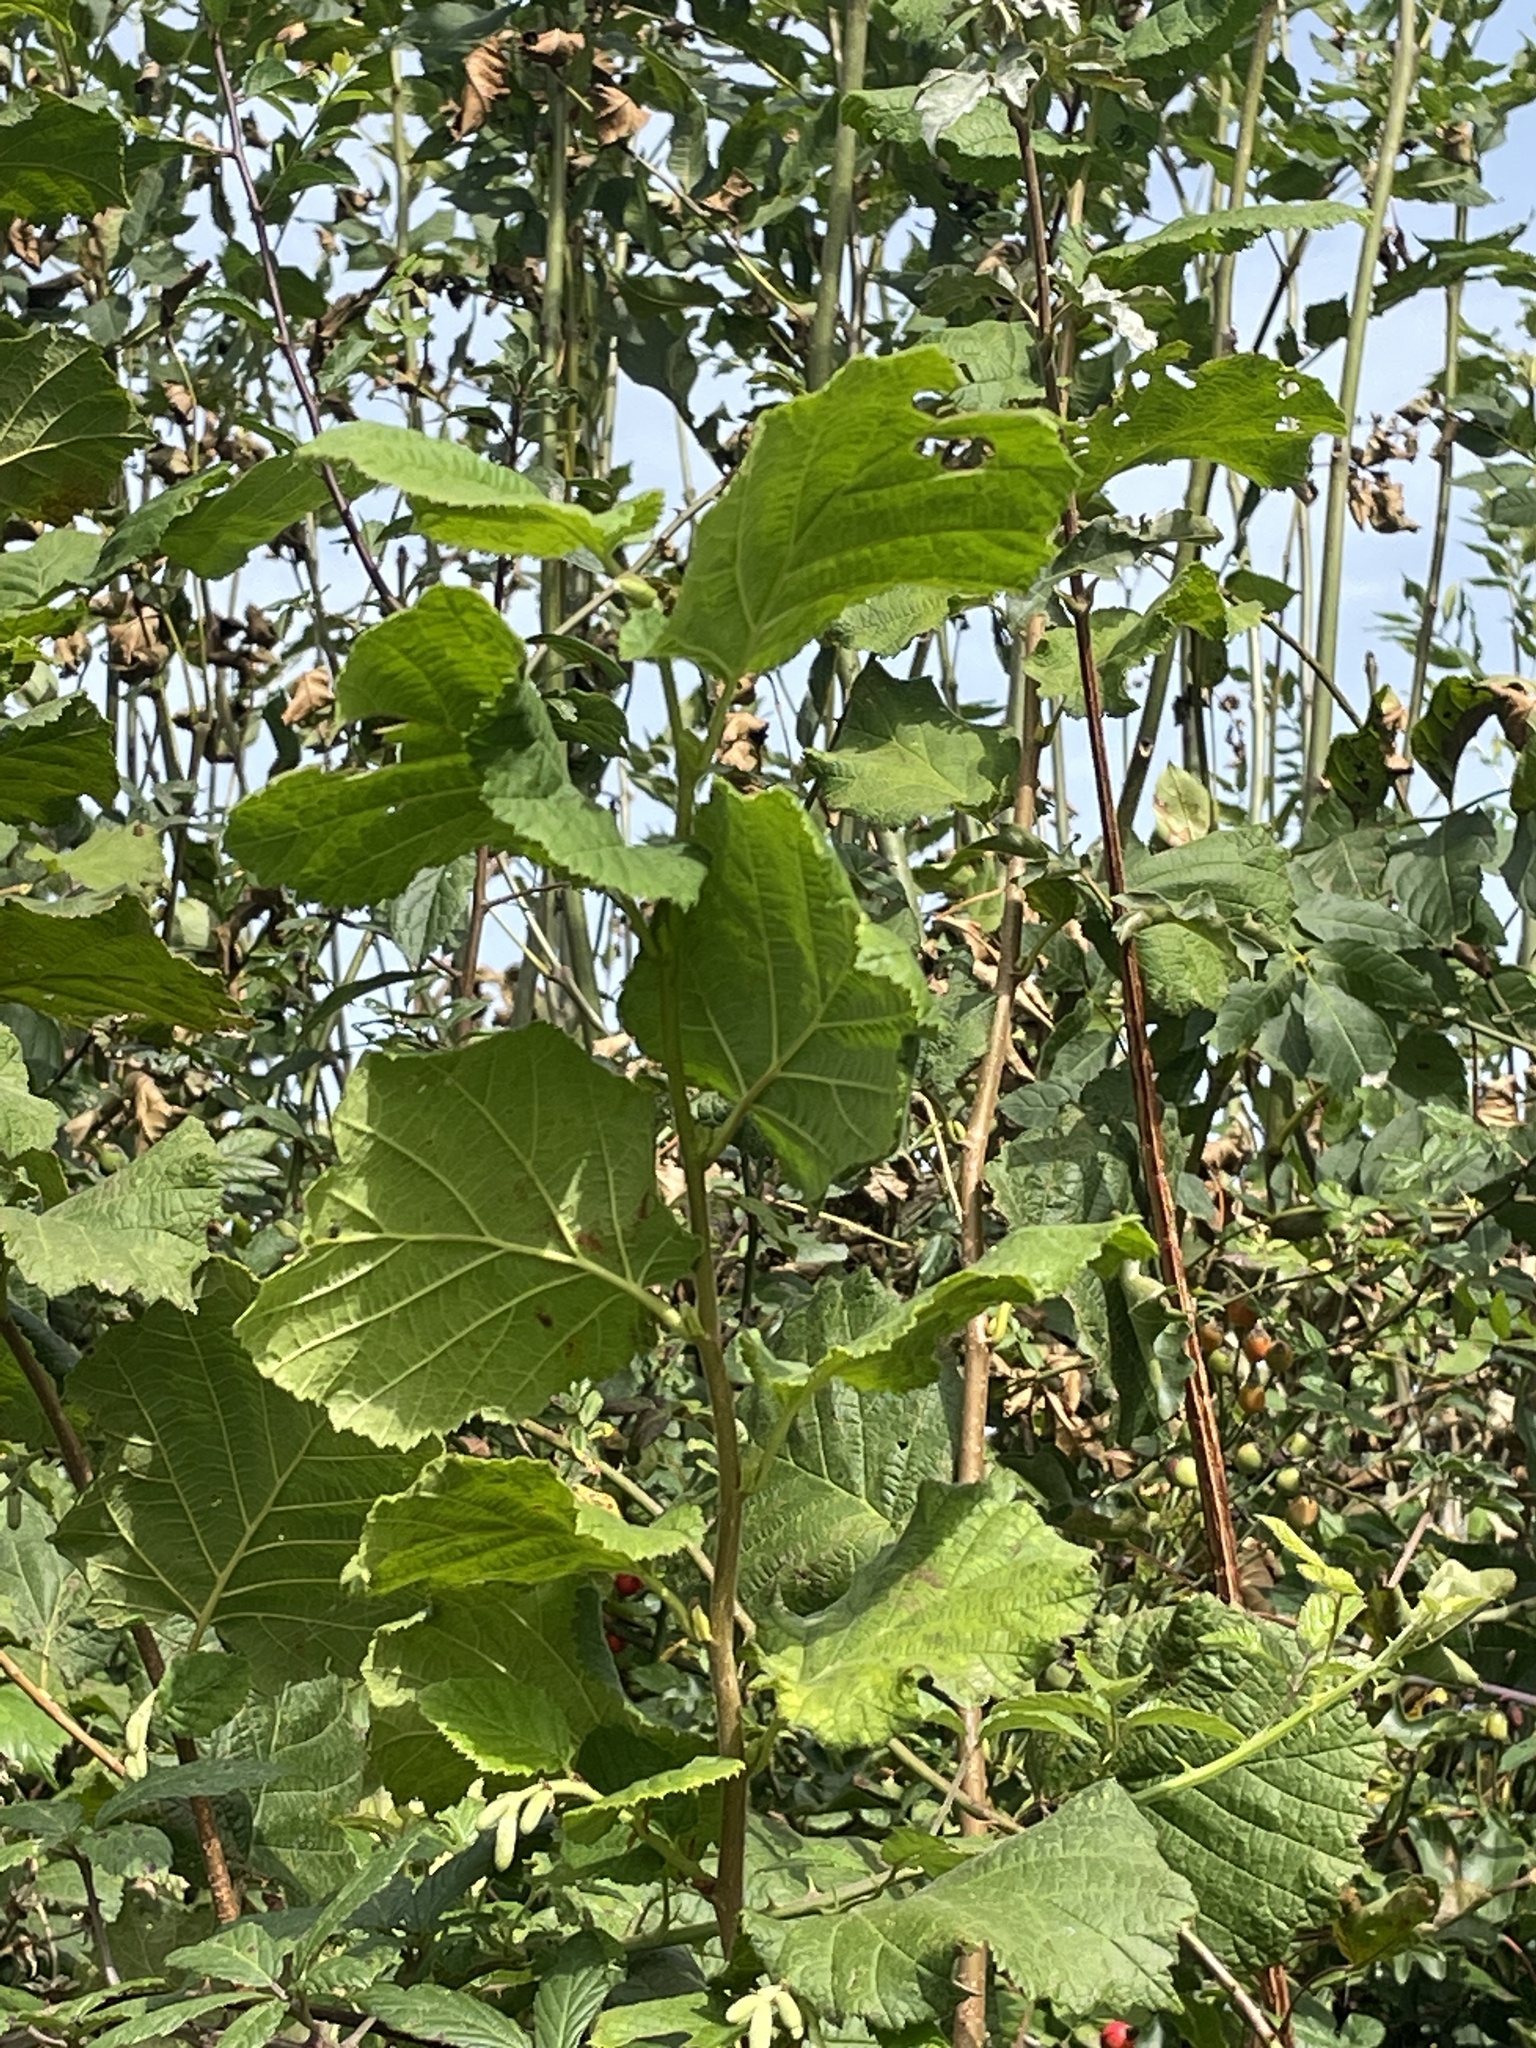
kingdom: Plantae
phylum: Tracheophyta
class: Magnoliopsida
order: Fagales
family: Betulaceae
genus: Corylus
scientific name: Corylus avellana
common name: European hazel
